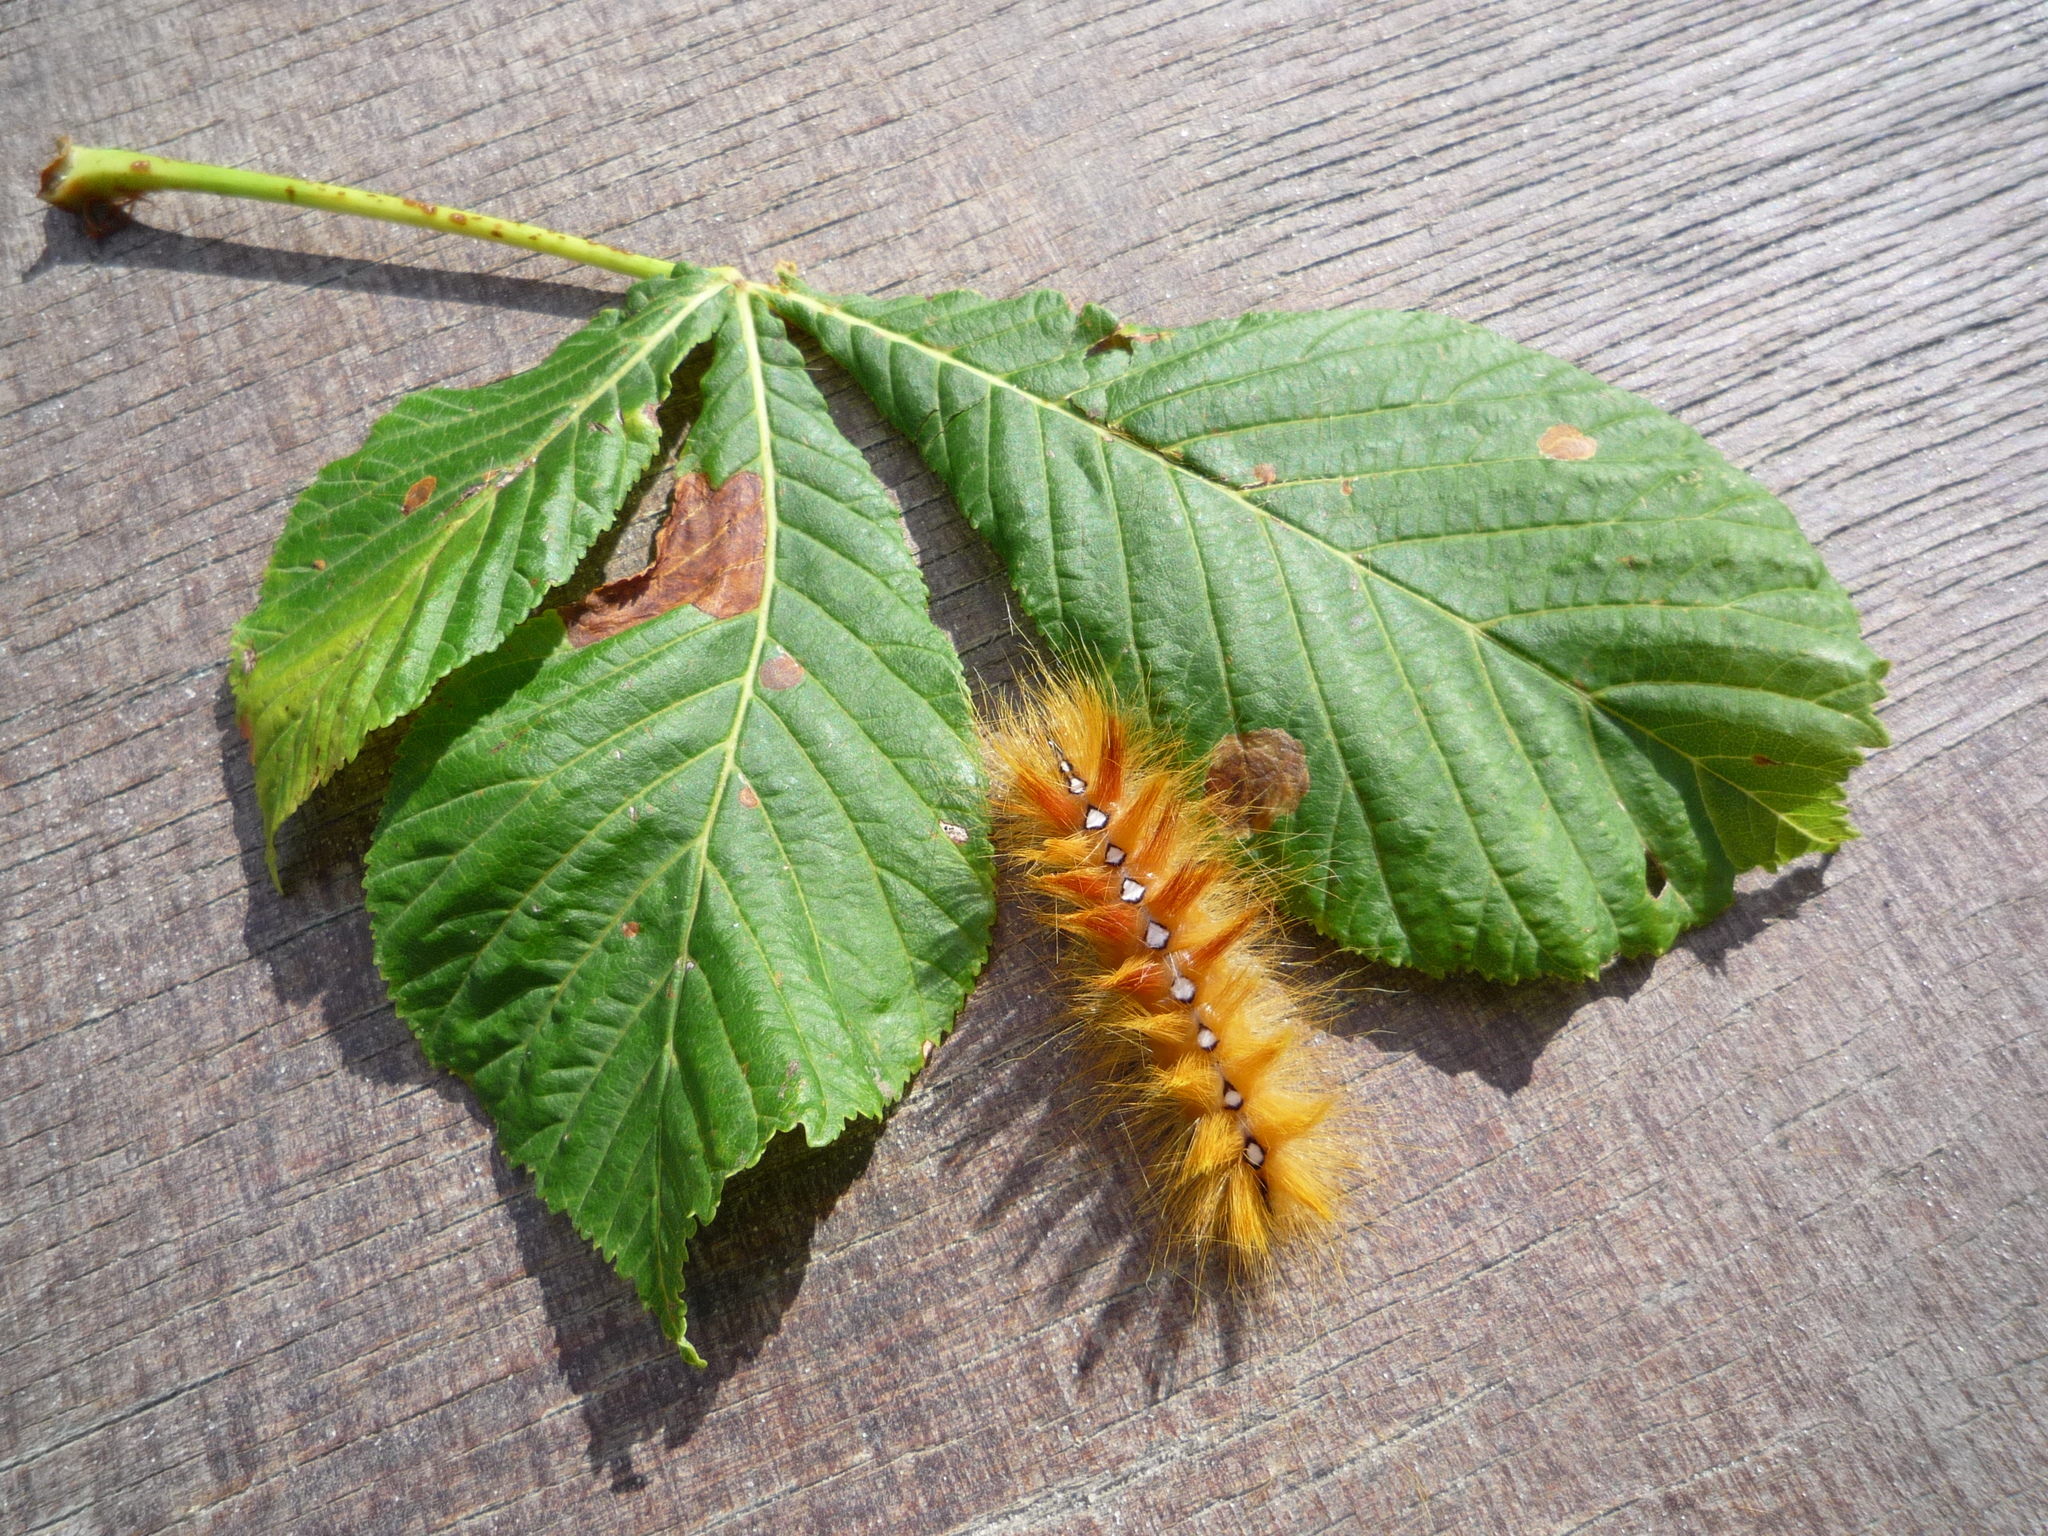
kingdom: Animalia
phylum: Arthropoda
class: Insecta
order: Lepidoptera
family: Noctuidae
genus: Acronicta
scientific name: Acronicta aceris
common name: Sycamore
